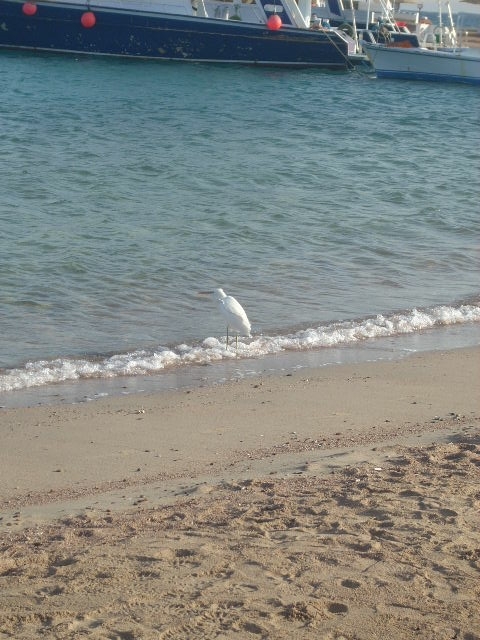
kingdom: Animalia
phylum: Chordata
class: Aves
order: Pelecaniformes
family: Ardeidae
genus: Egretta
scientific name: Egretta gularis
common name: Western reef-heron
